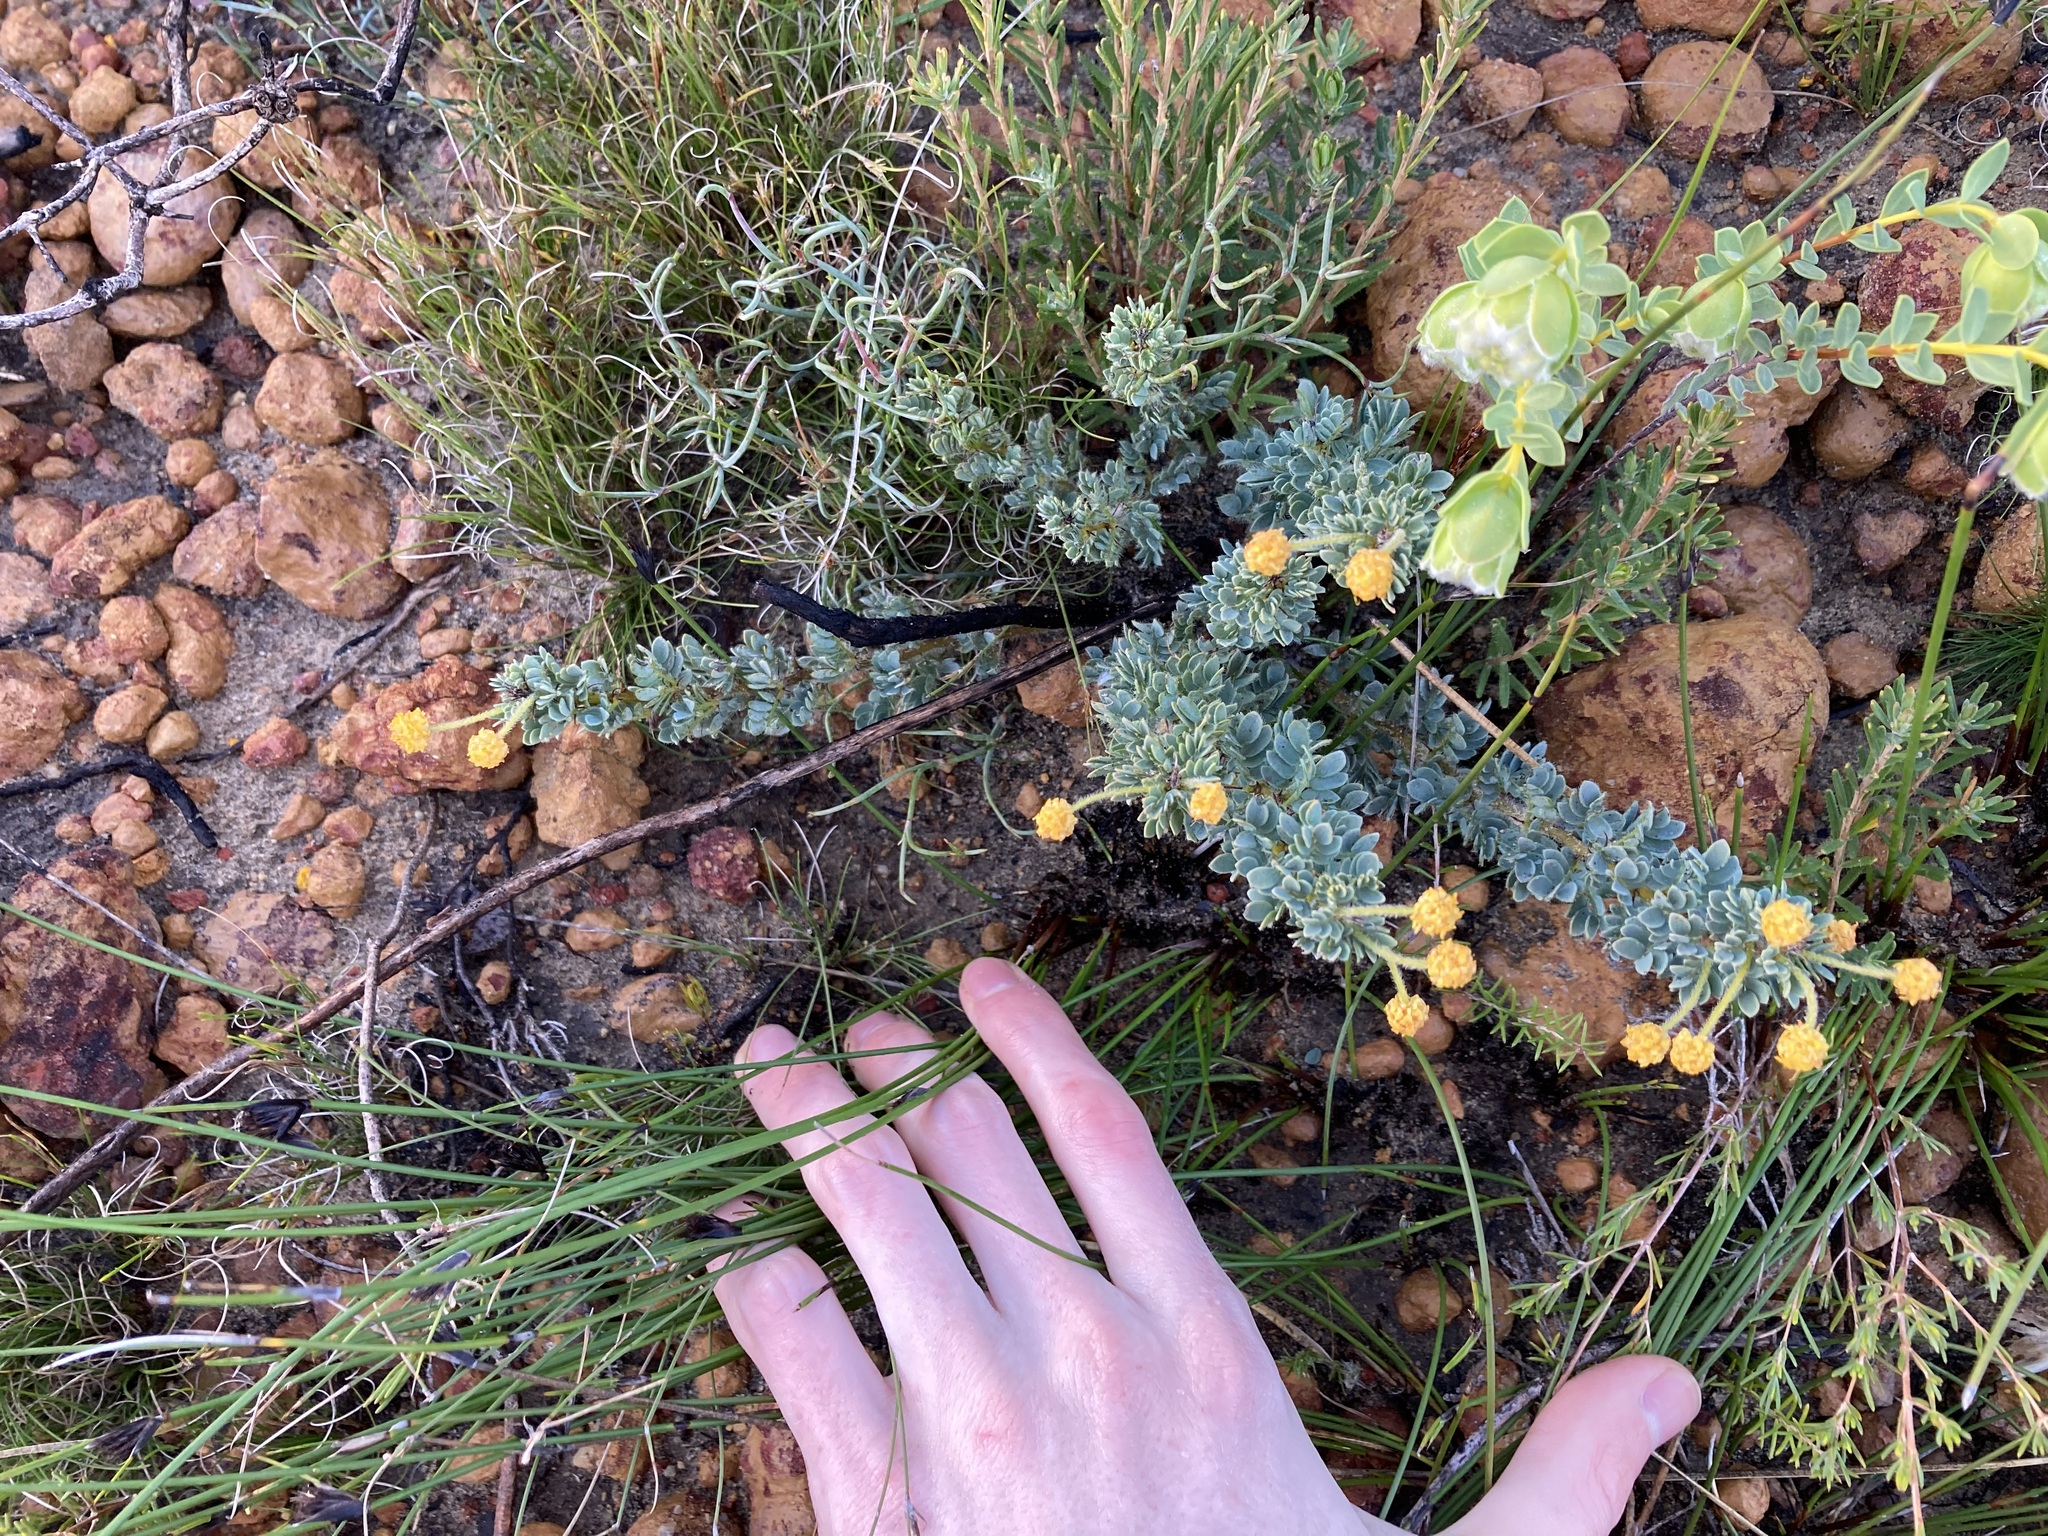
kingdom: Plantae
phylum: Tracheophyta
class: Magnoliopsida
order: Fabales
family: Fabaceae
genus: Acacia
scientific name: Acacia moirii
